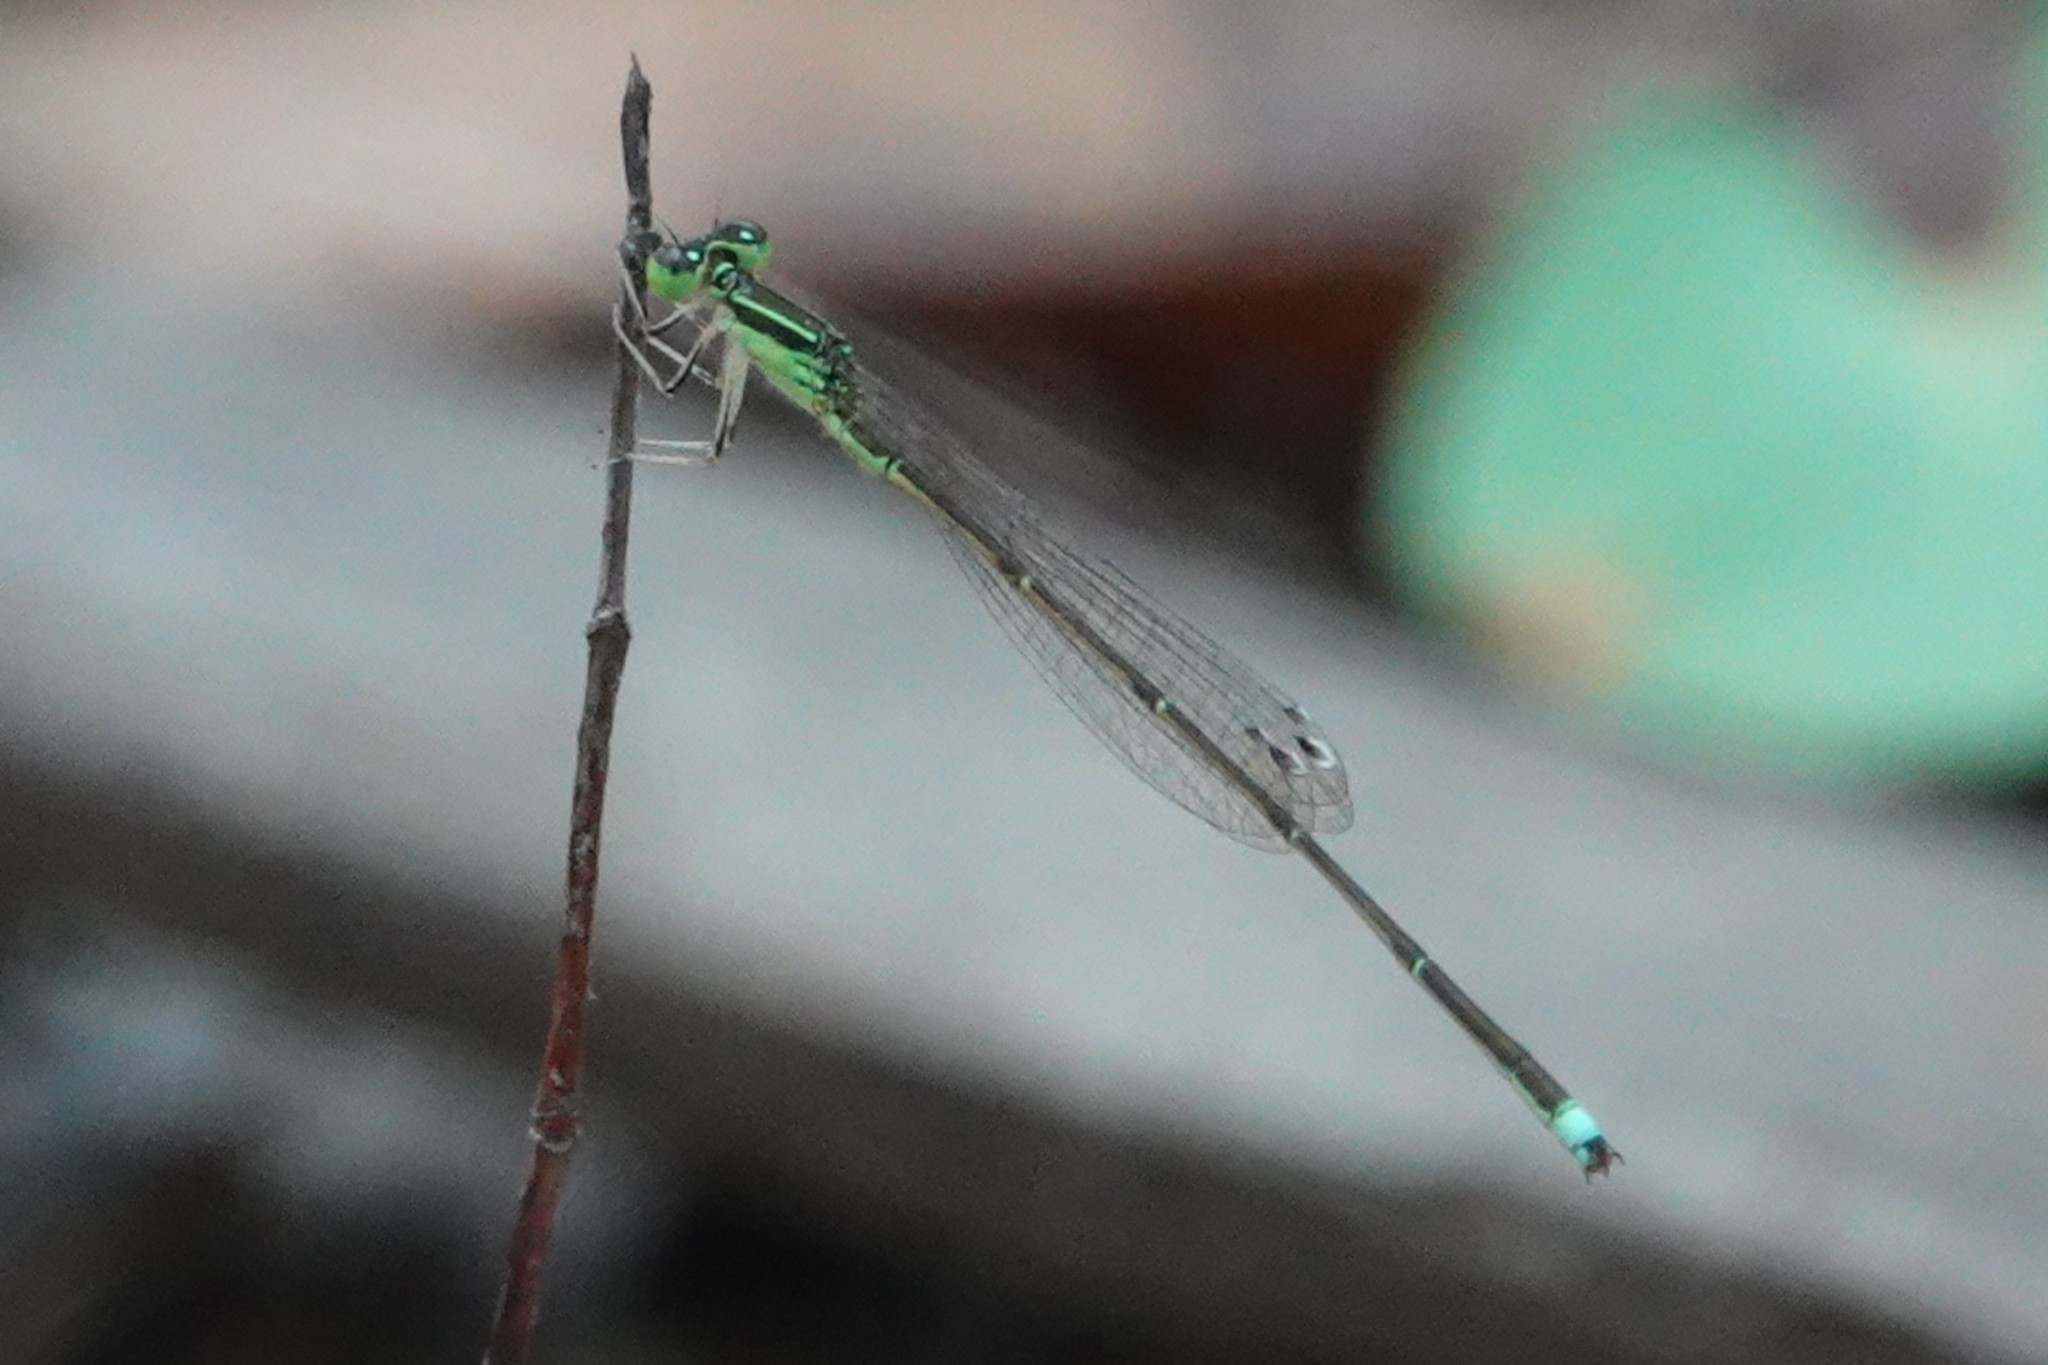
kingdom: Animalia
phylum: Arthropoda
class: Insecta
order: Odonata
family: Coenagrionidae
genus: Ischnura
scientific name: Ischnura prognata
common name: Furtive forktail
